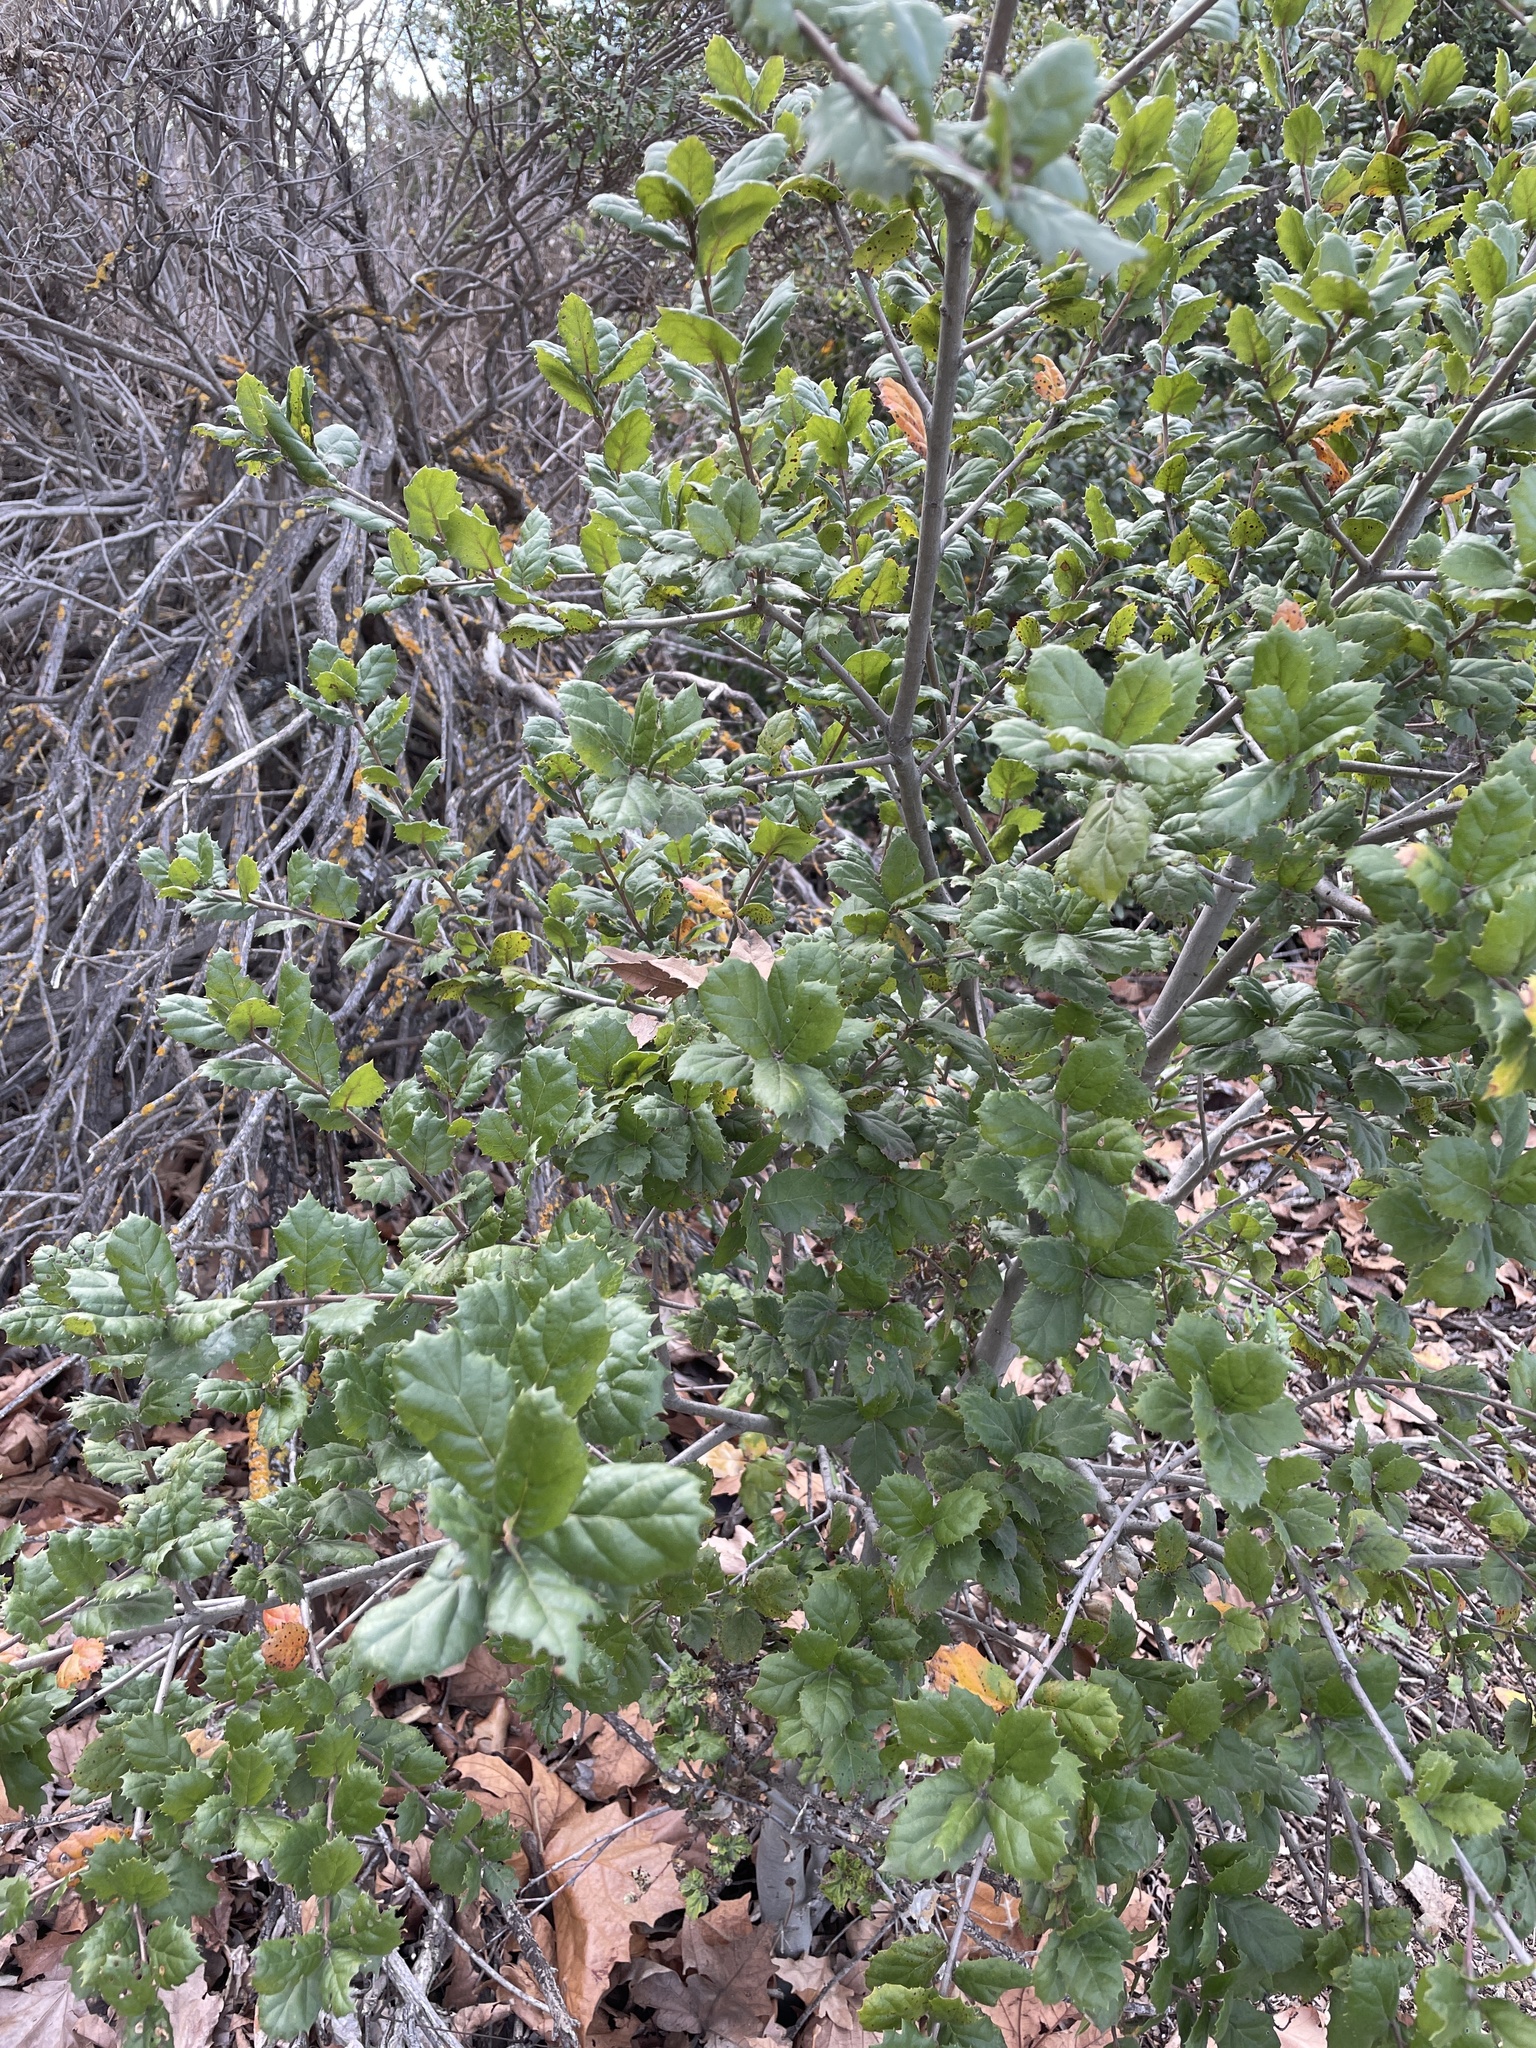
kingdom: Plantae
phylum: Tracheophyta
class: Magnoliopsida
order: Fagales
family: Fagaceae
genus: Quercus
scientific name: Quercus agrifolia
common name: California live oak
